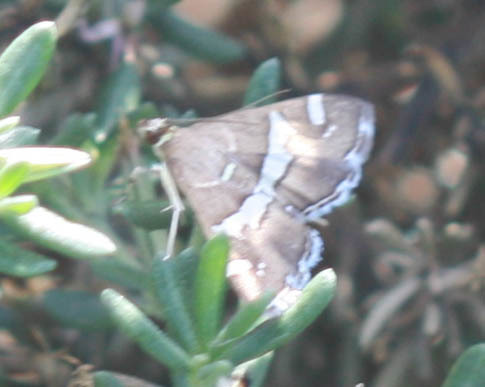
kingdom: Animalia
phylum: Arthropoda
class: Insecta
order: Lepidoptera
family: Crambidae
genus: Spoladea
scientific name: Spoladea recurvalis
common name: Beet webworm moth
